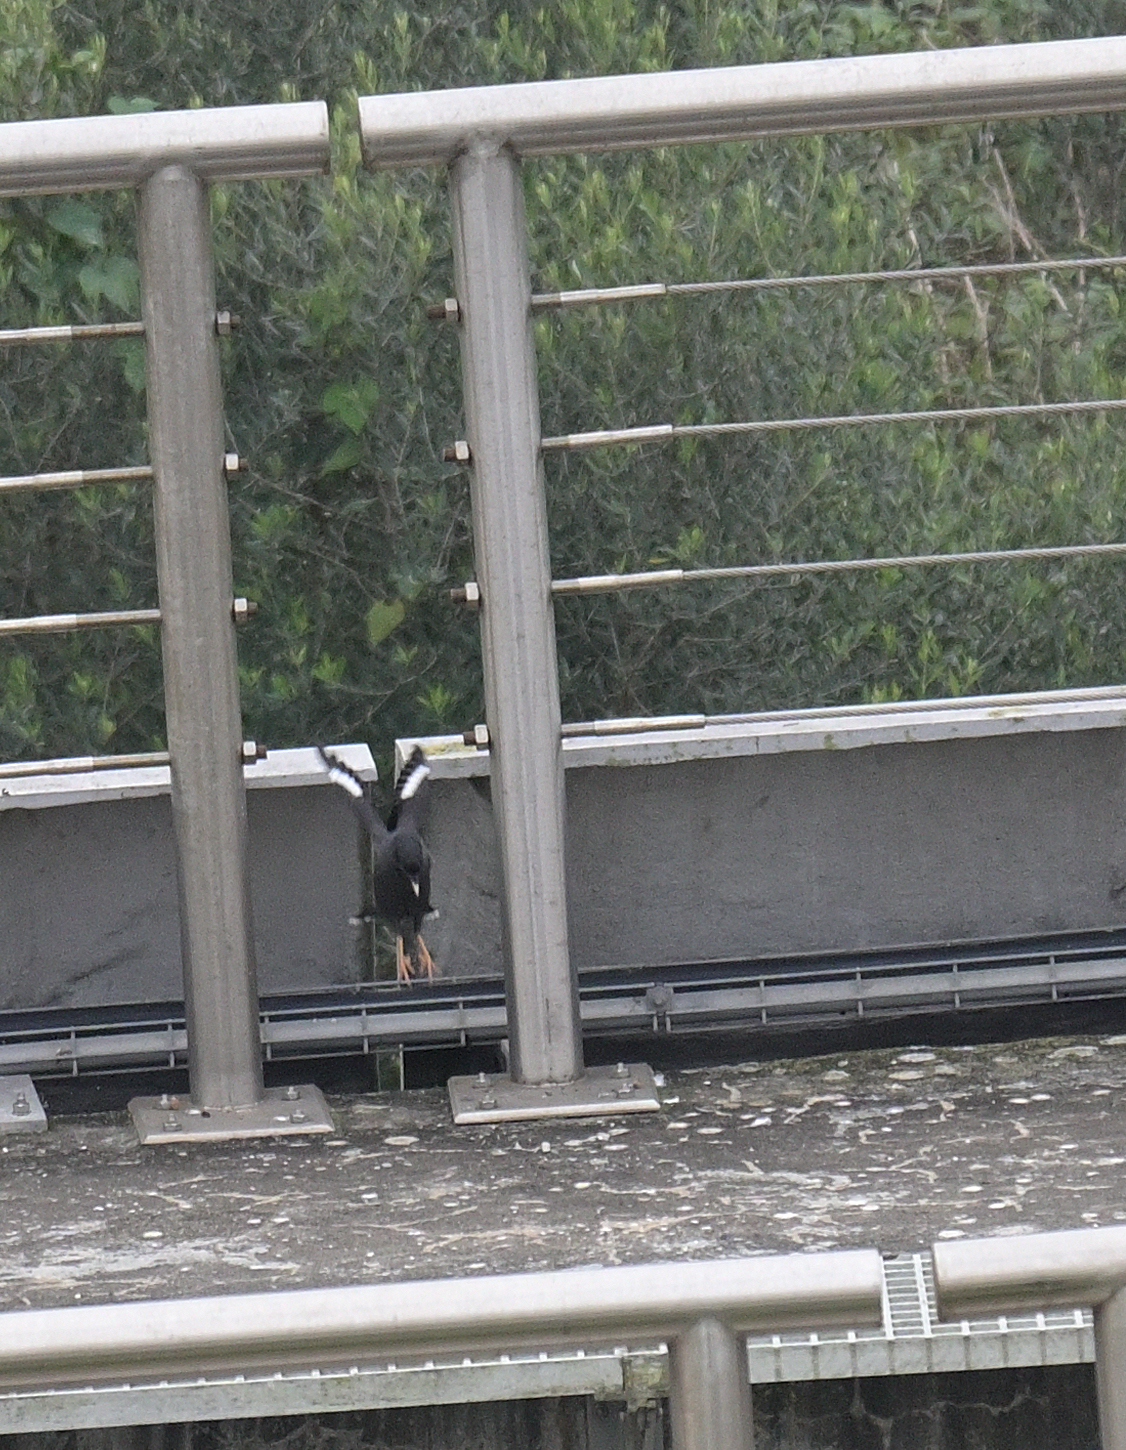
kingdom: Animalia
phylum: Chordata
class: Aves
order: Passeriformes
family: Sturnidae
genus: Acridotheres
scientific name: Acridotheres cristatellus
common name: Crested myna
